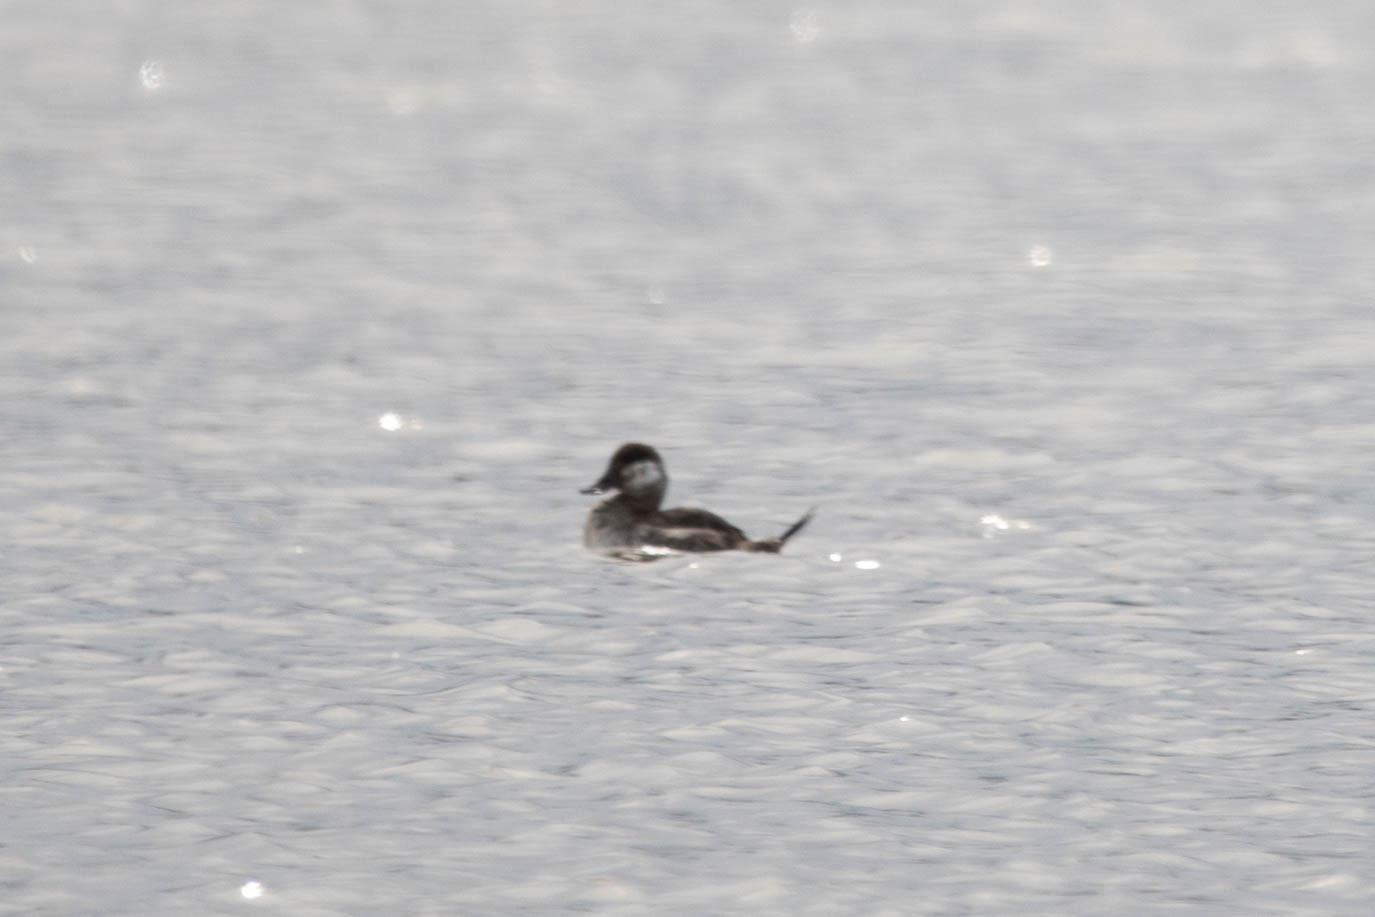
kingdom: Animalia
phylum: Chordata
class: Aves
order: Anseriformes
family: Anatidae
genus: Oxyura
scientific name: Oxyura jamaicensis
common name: Ruddy duck
